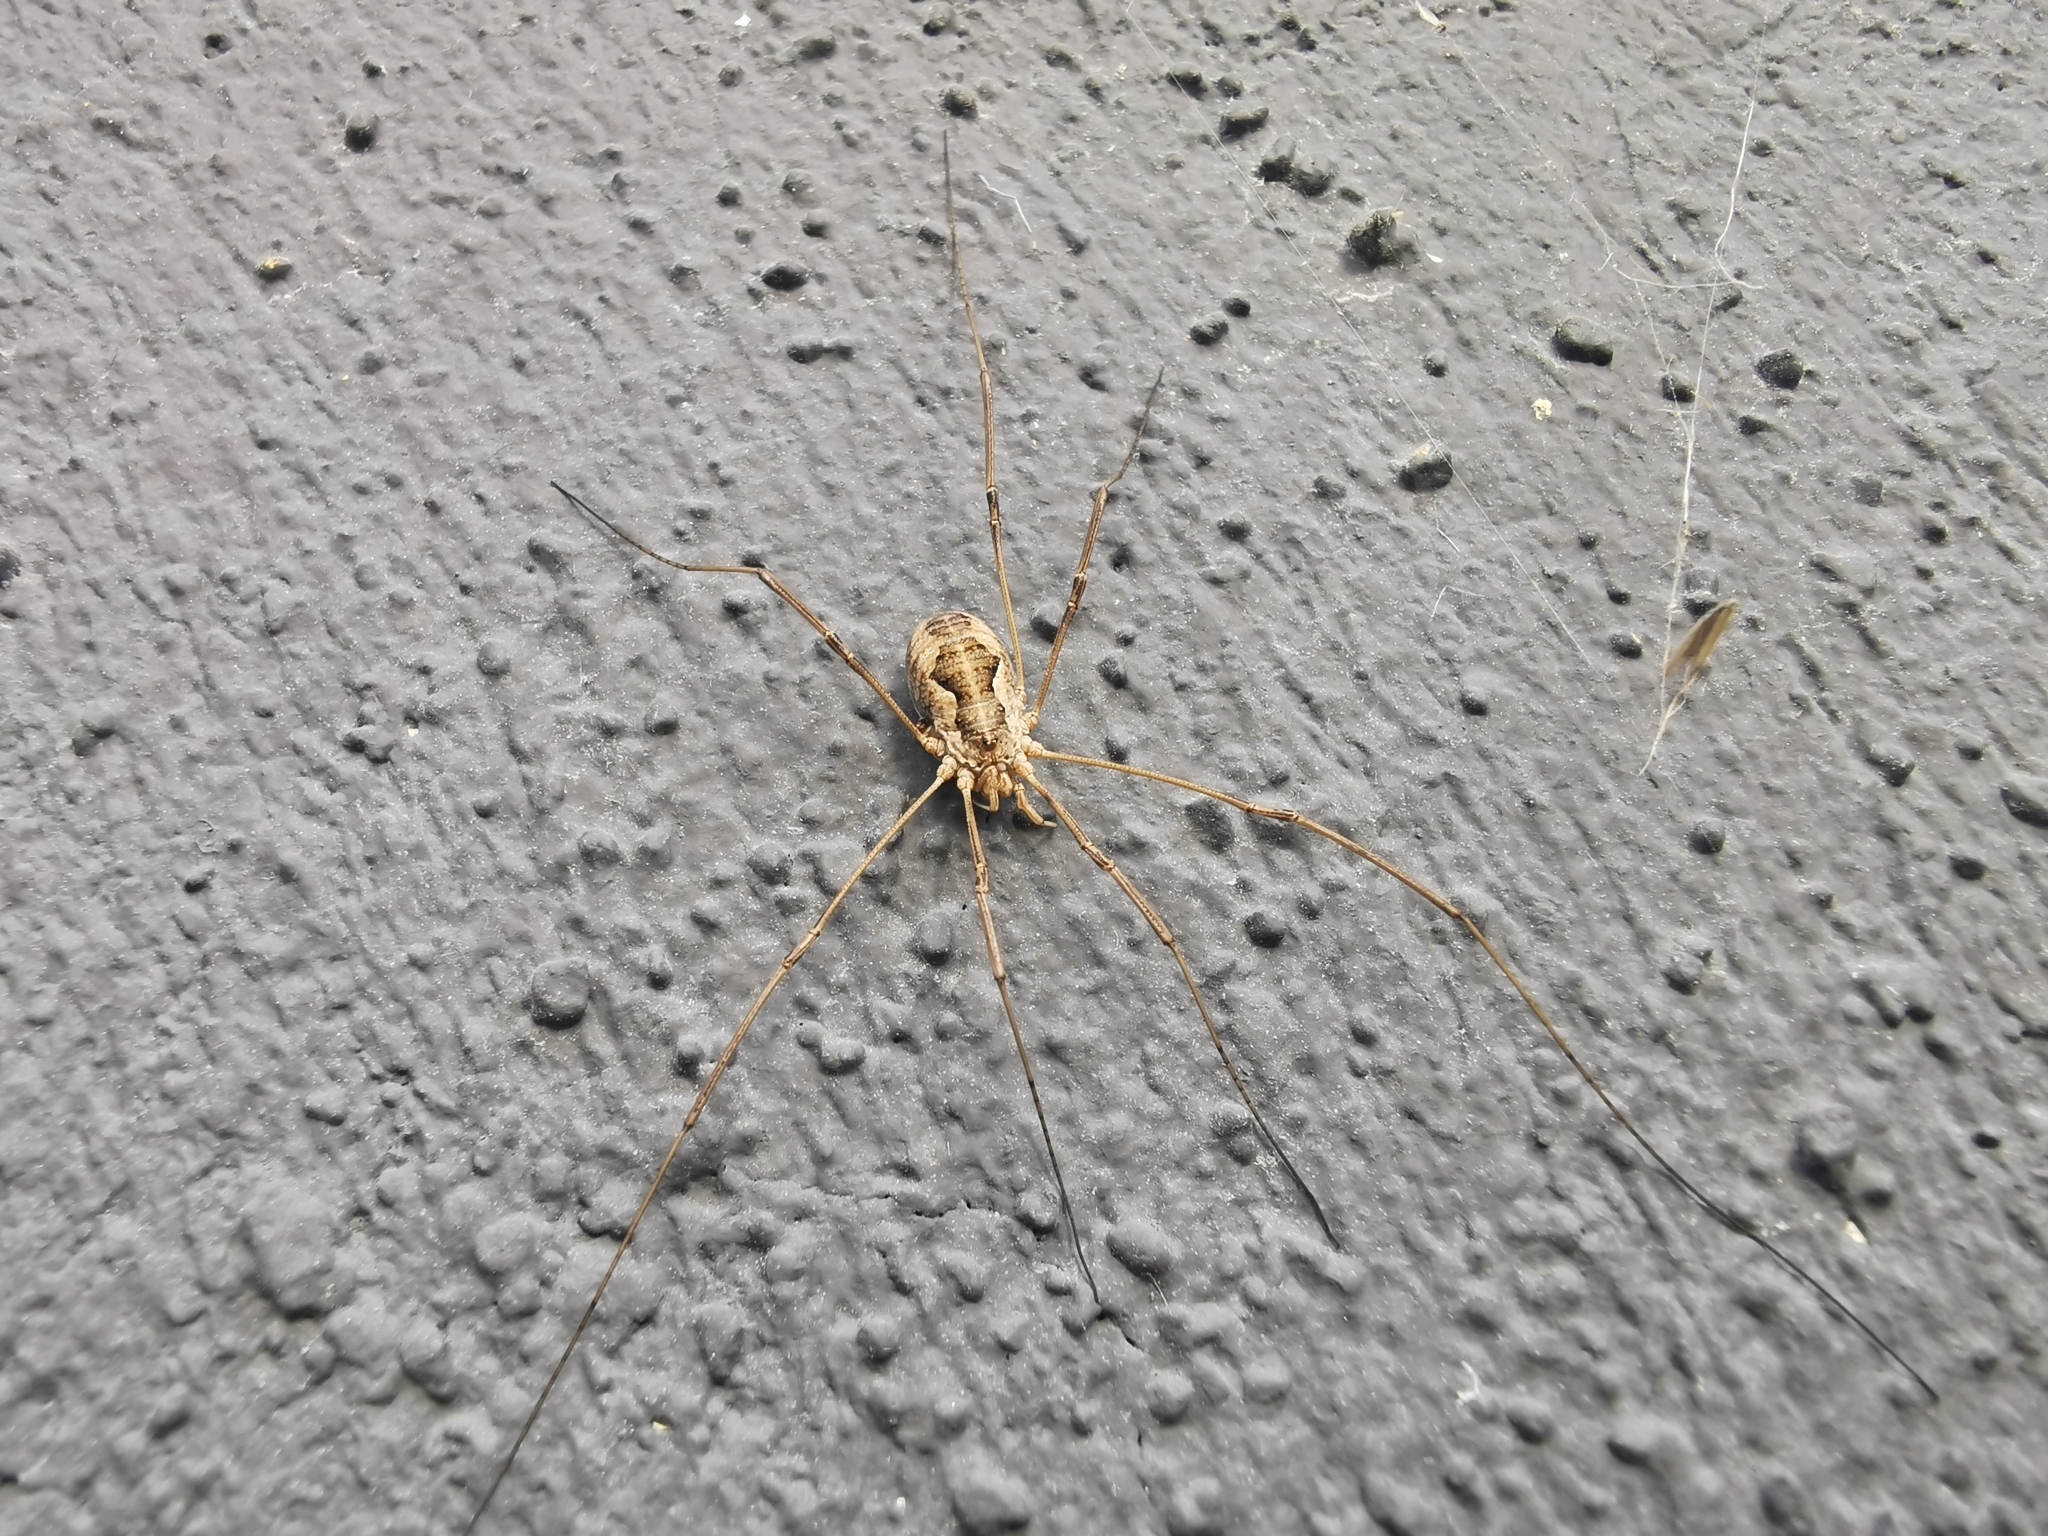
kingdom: Animalia
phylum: Arthropoda
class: Arachnida
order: Opiliones
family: Phalangiidae
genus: Phalangium
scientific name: Phalangium opilio
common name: Daddy longleg
